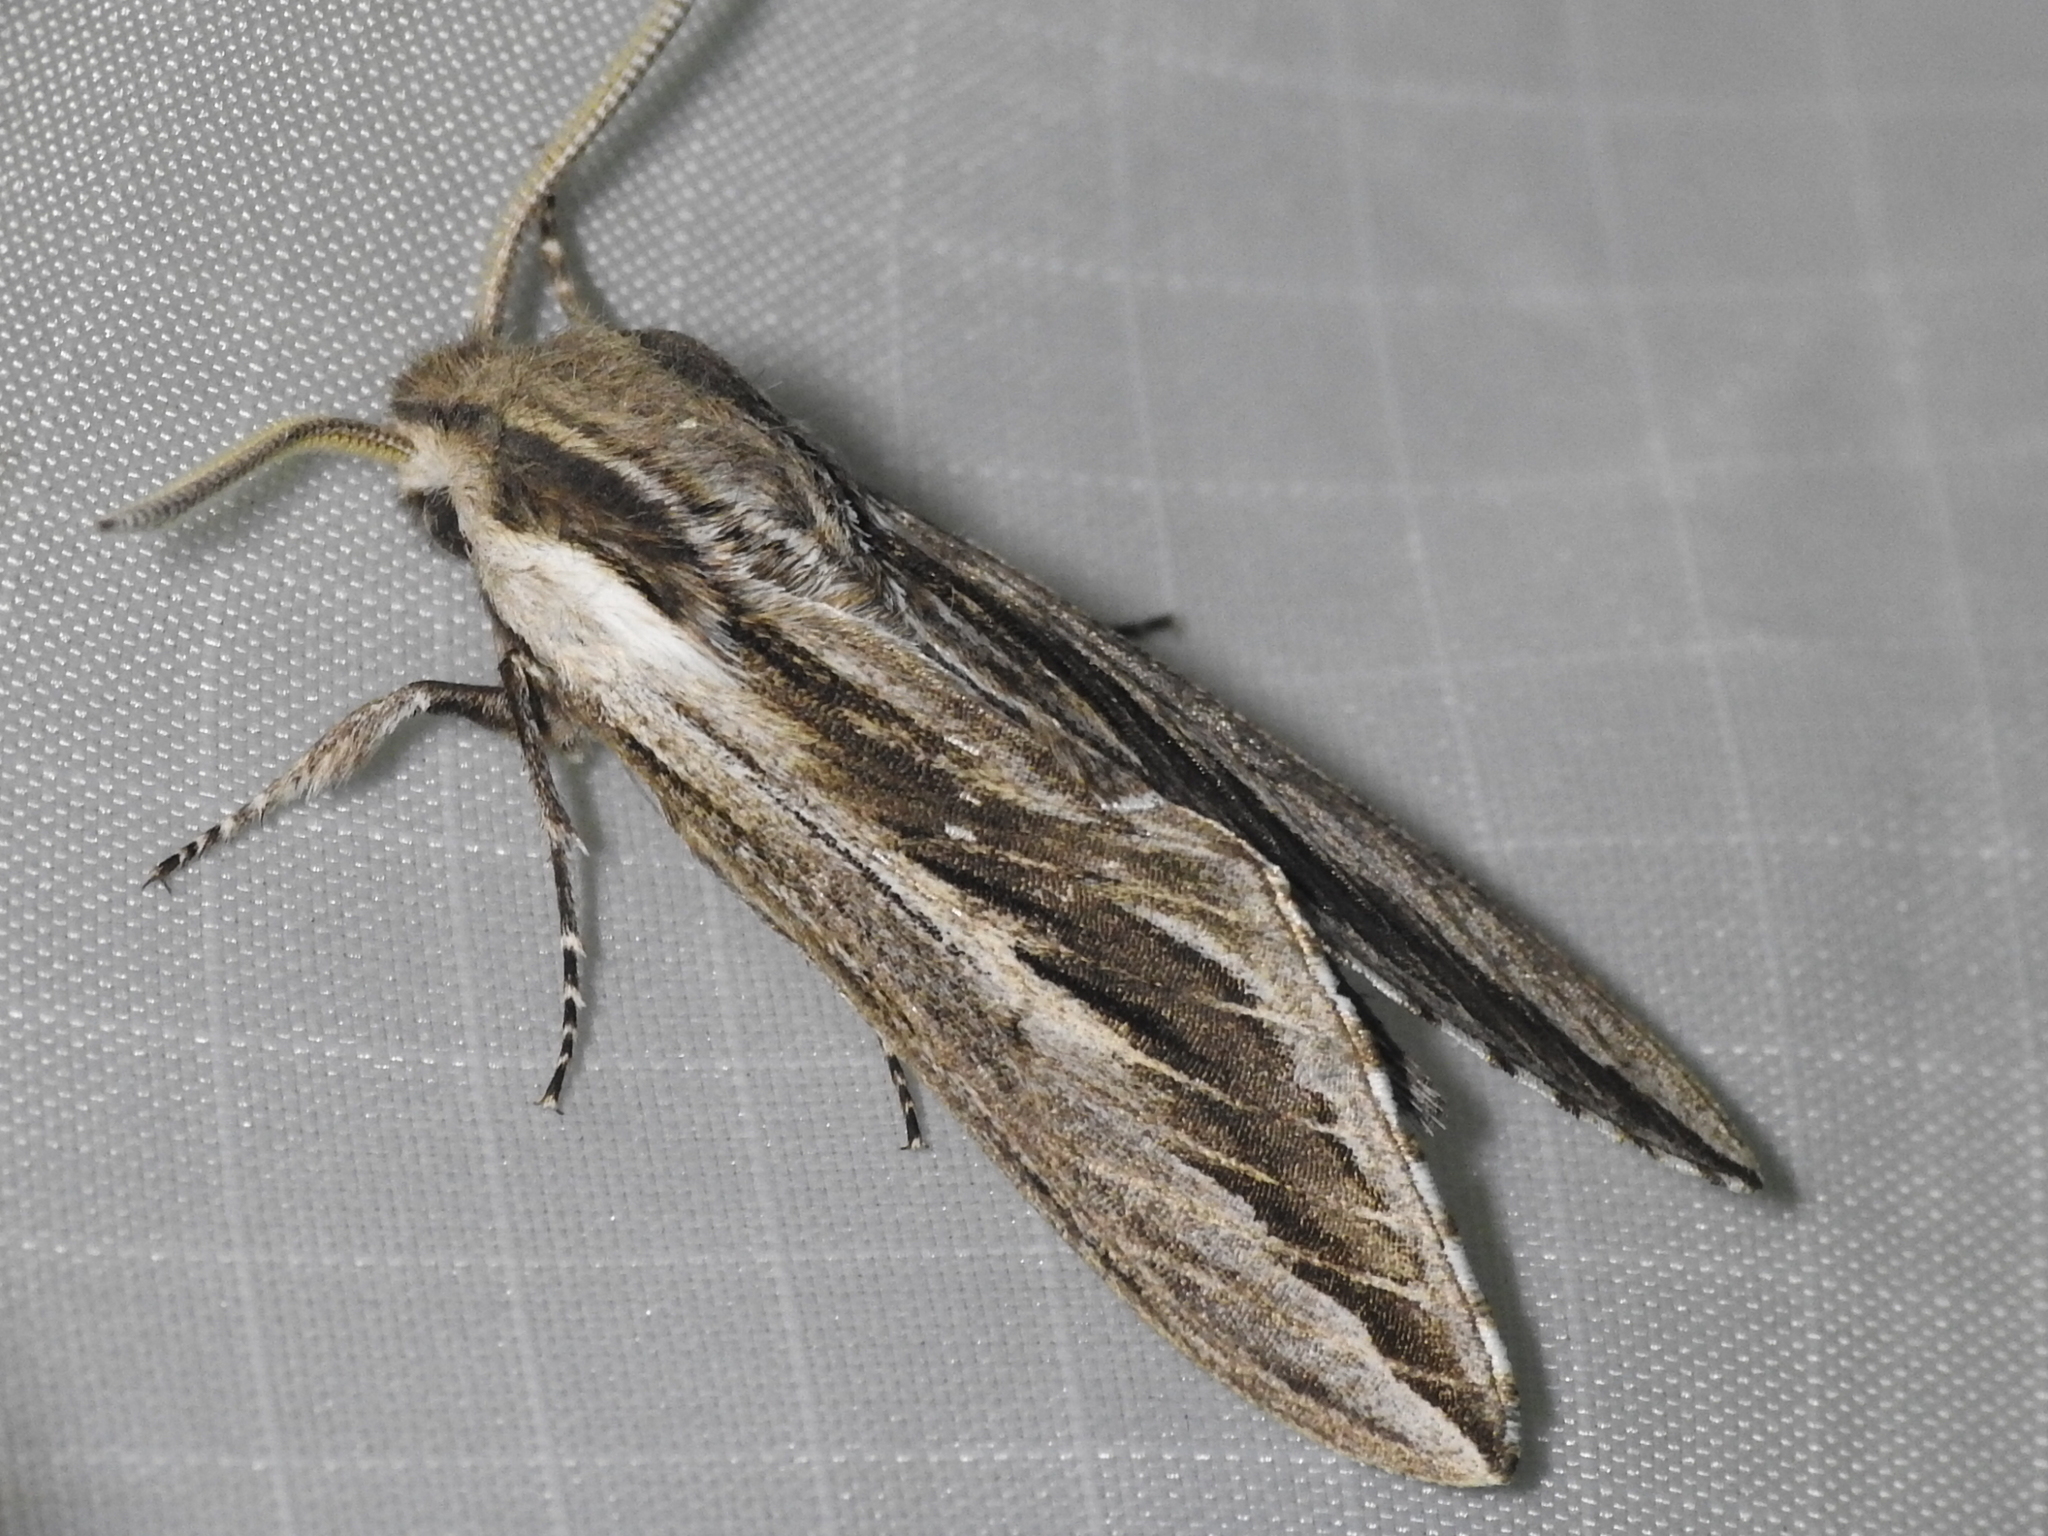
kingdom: Animalia
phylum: Arthropoda
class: Insecta
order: Lepidoptera
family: Sphingidae
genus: Sphinx
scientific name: Sphinx vanbuskirki
